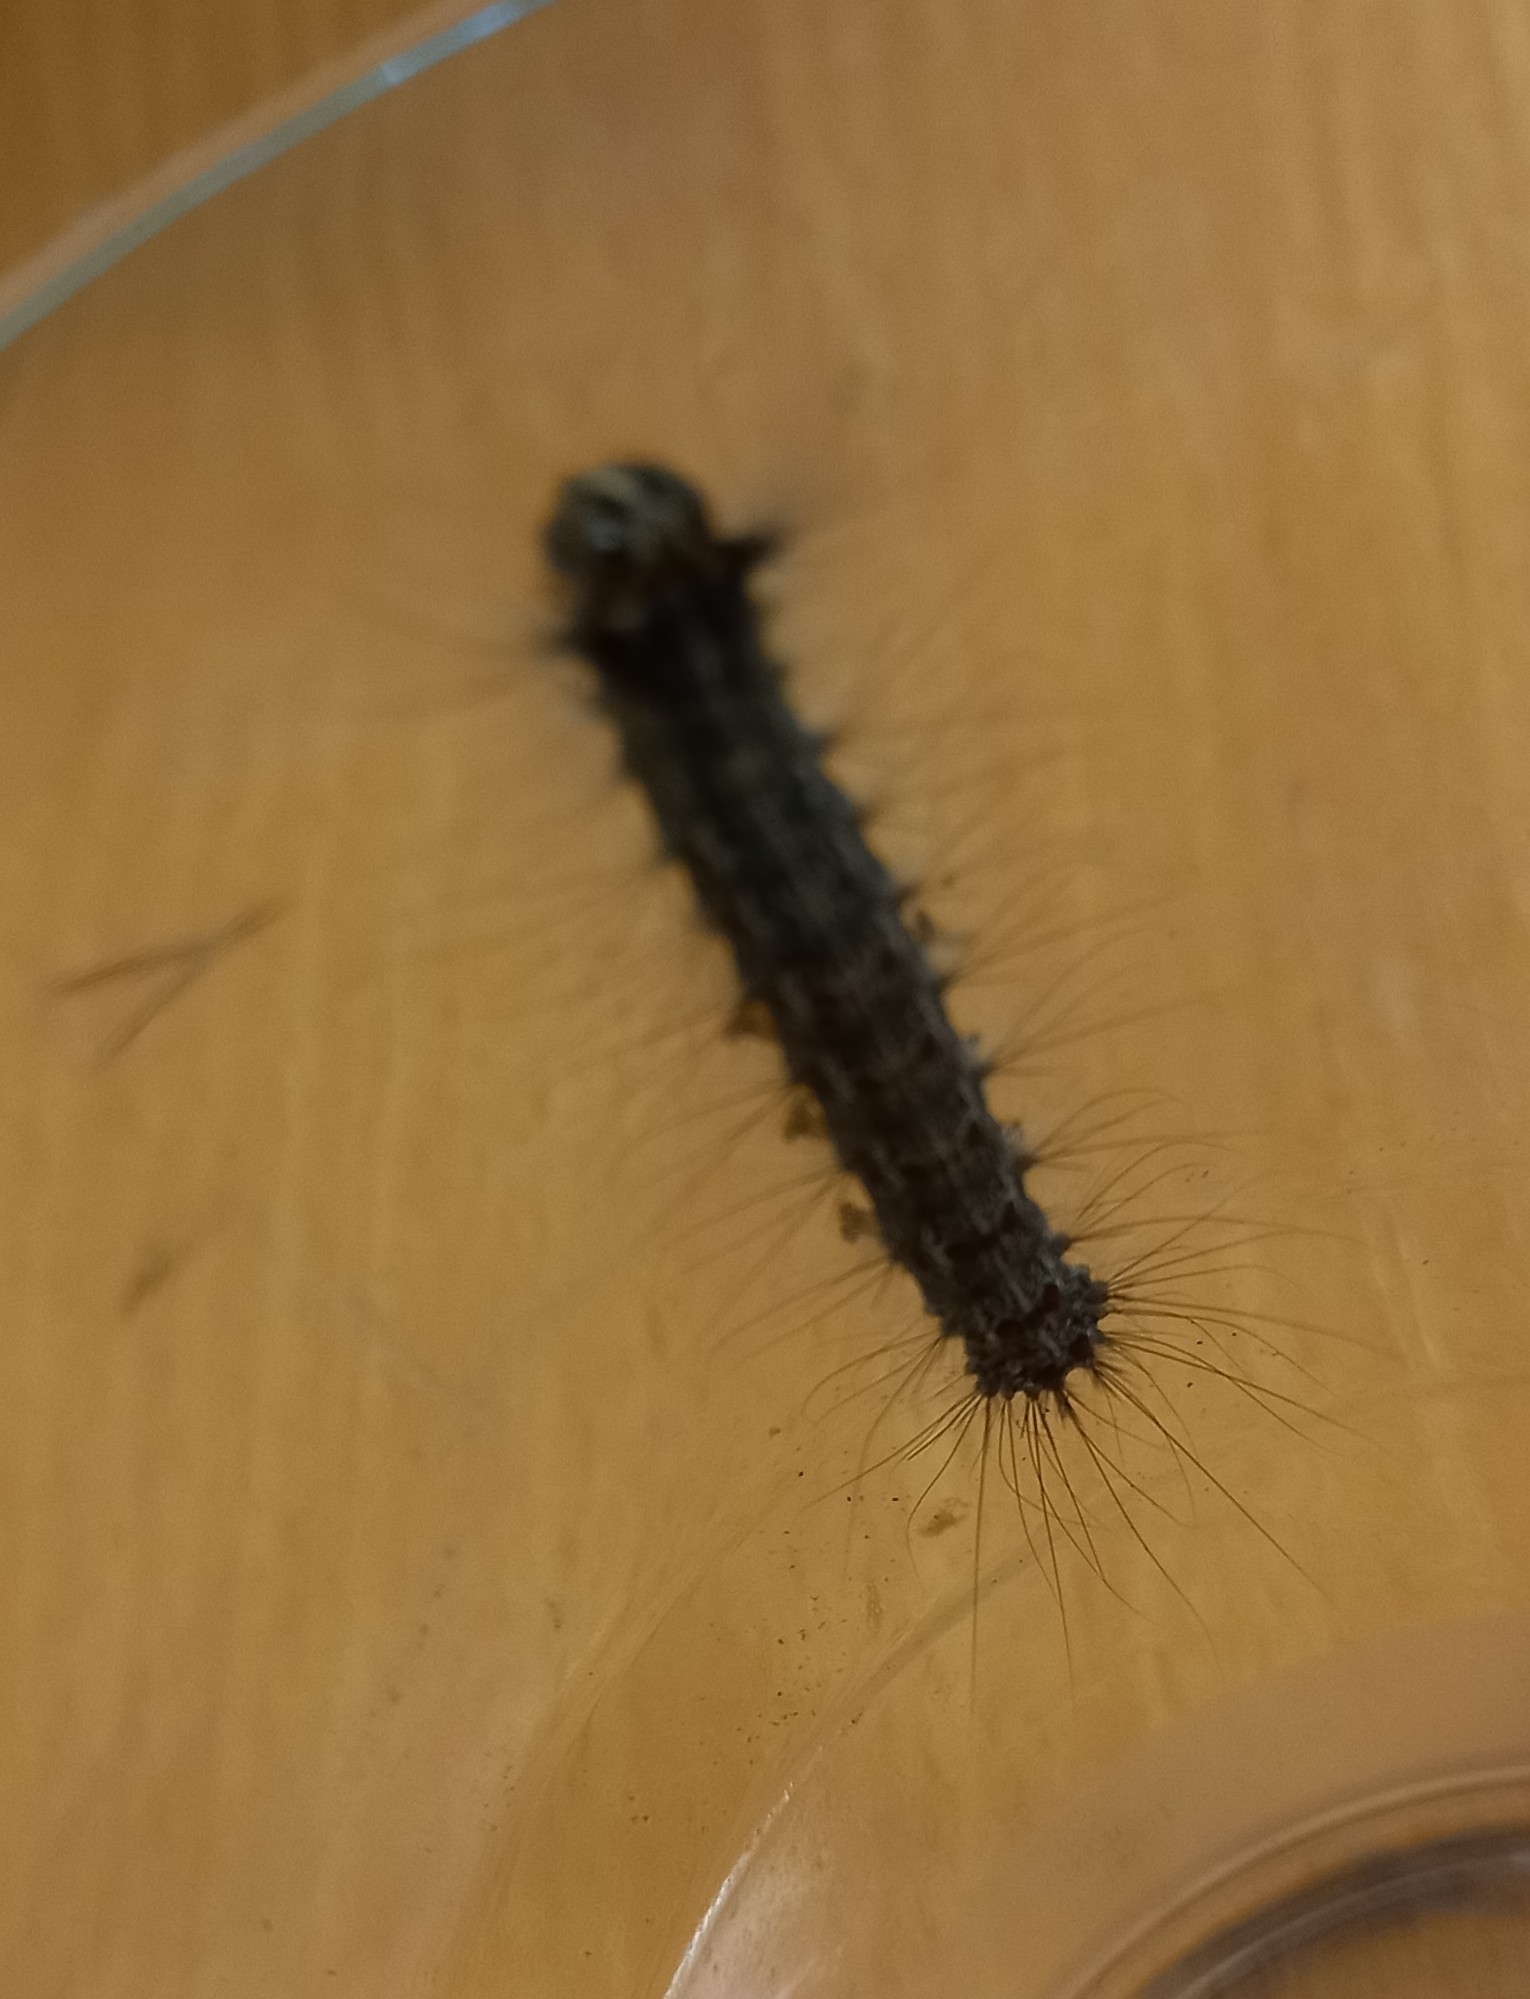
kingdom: Animalia
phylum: Arthropoda
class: Insecta
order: Lepidoptera
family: Erebidae
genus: Lymantria
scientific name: Lymantria dispar
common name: Gypsy moth
